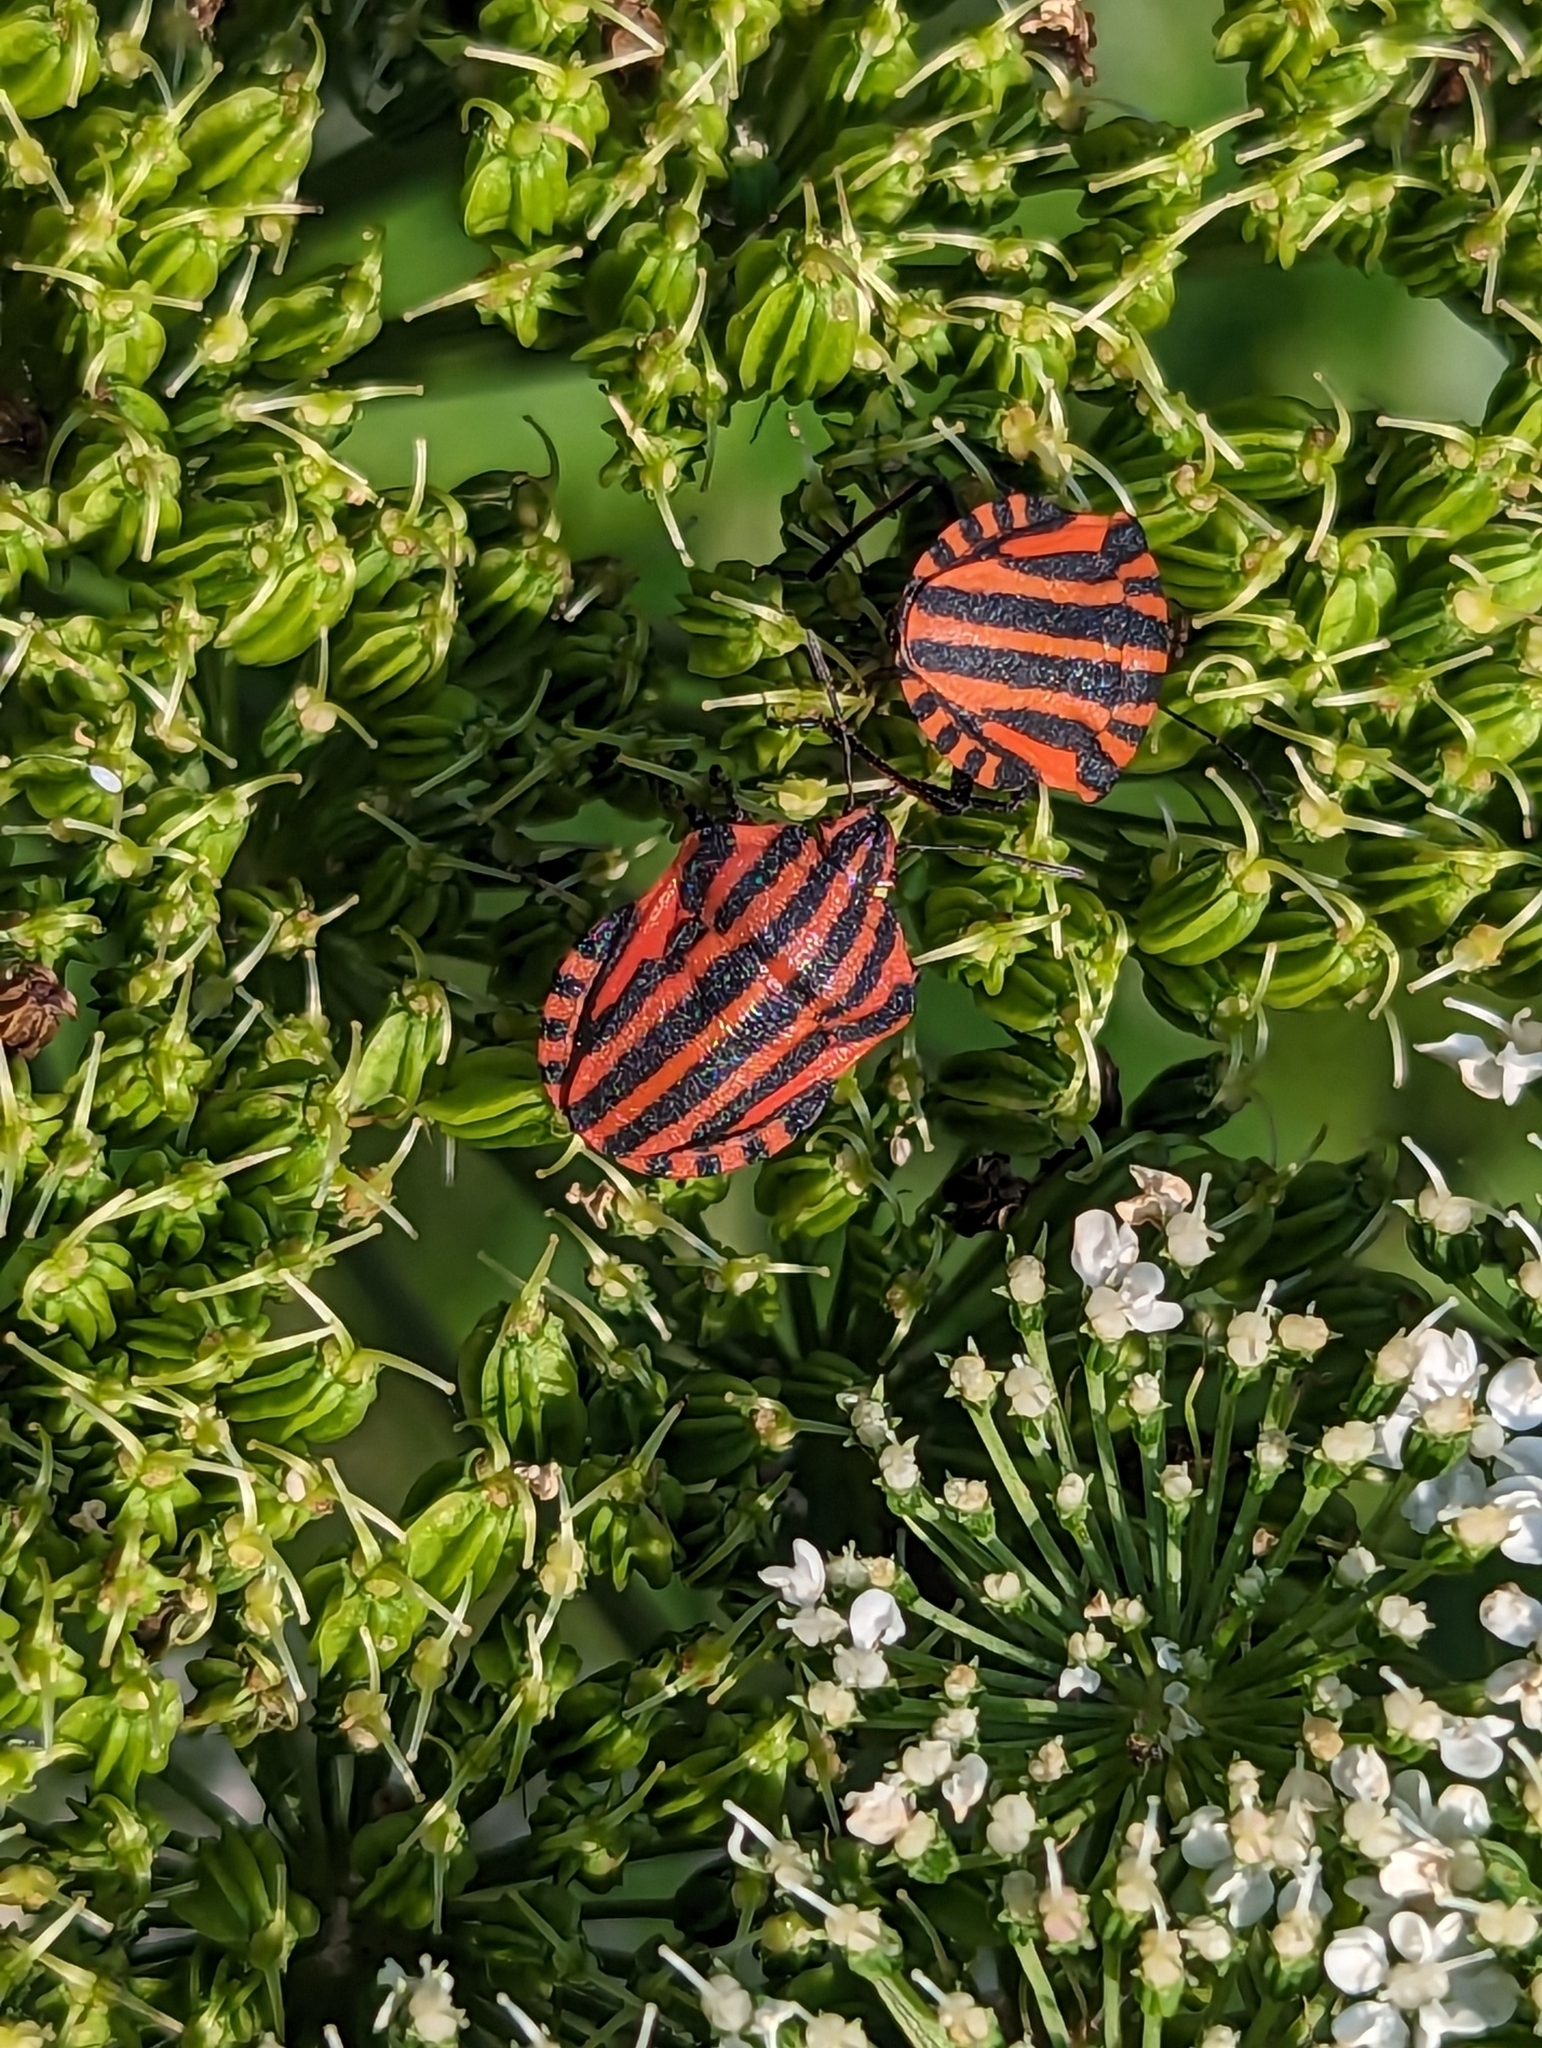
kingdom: Animalia
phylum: Arthropoda
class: Insecta
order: Hemiptera
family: Pentatomidae
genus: Graphosoma
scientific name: Graphosoma italicum
